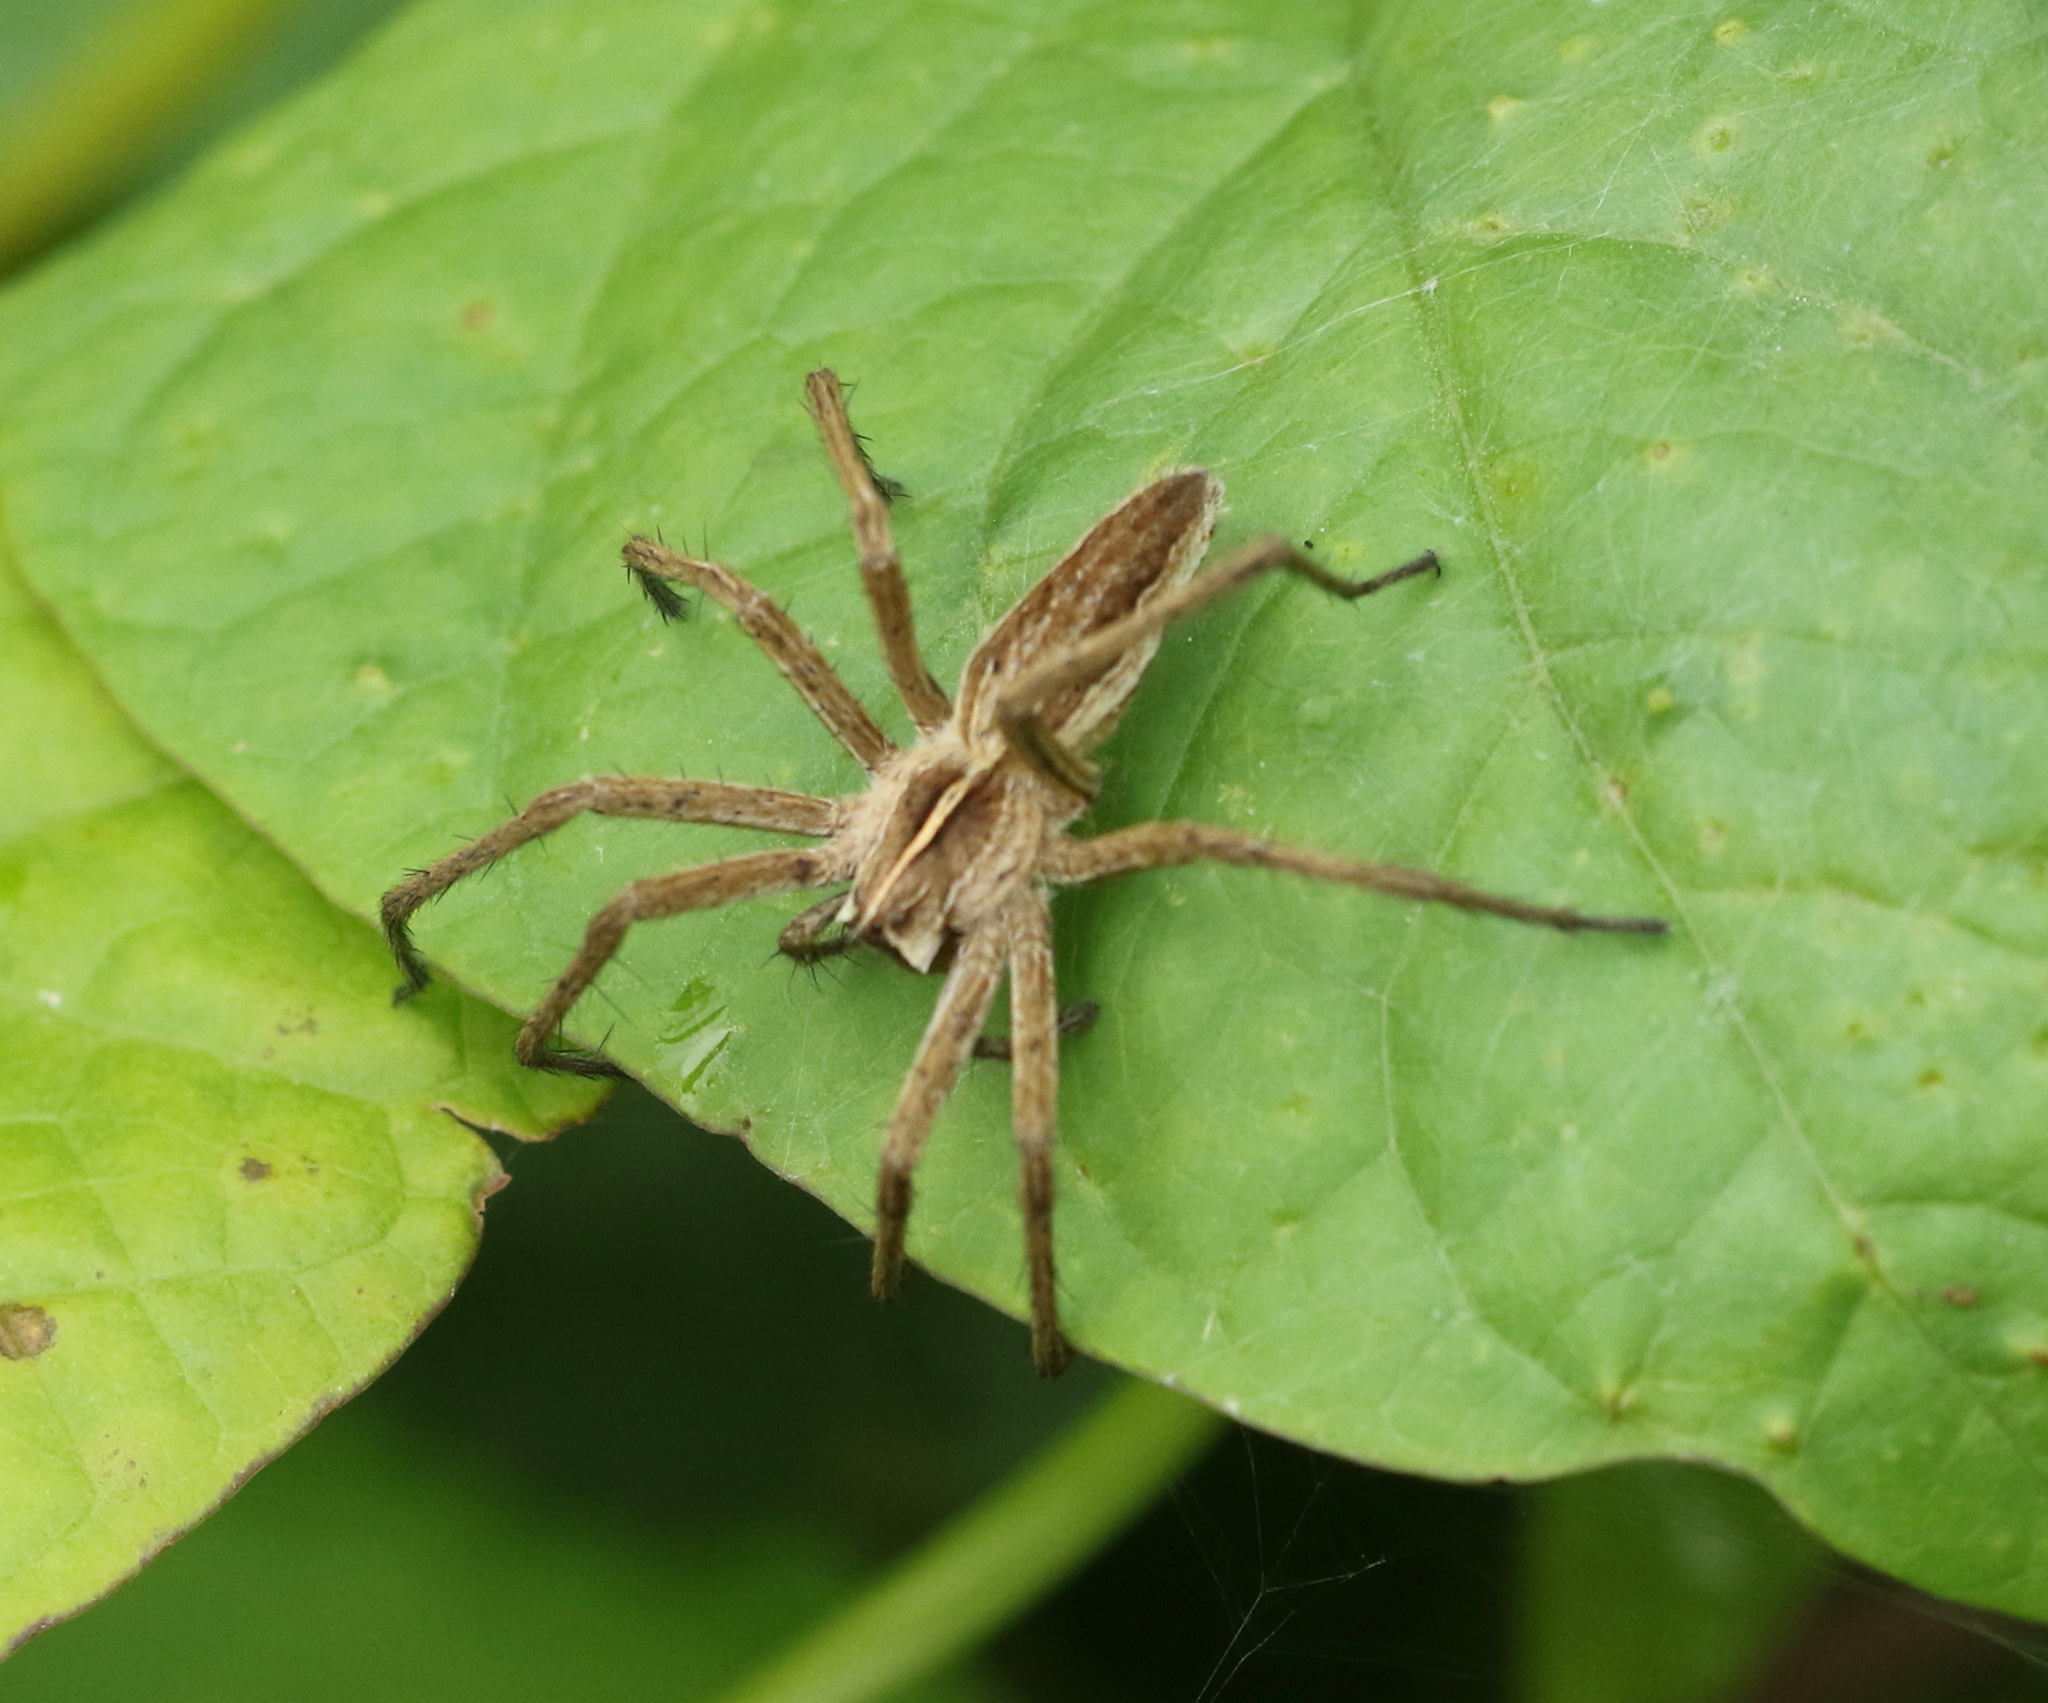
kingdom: Animalia
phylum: Arthropoda
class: Arachnida
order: Araneae
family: Pisauridae
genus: Pisaura
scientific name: Pisaura mirabilis
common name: Tent spider
